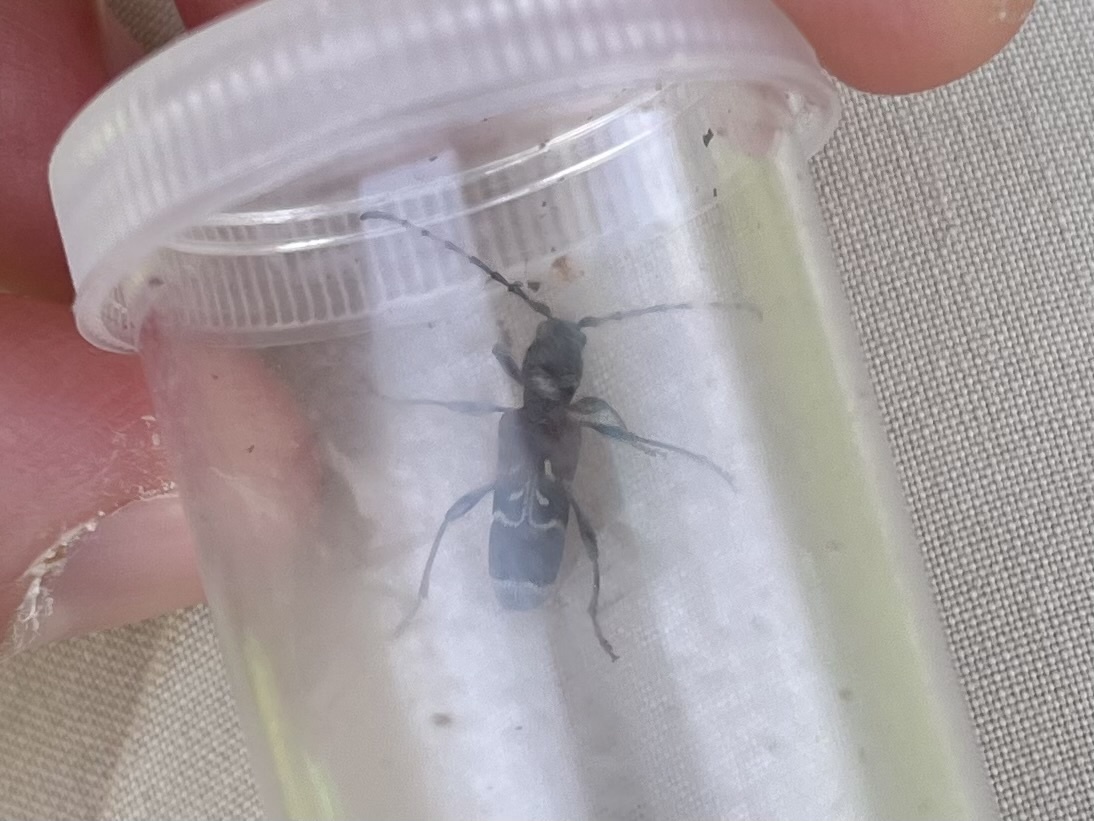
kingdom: Animalia
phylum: Arthropoda
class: Insecta
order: Coleoptera
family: Cerambycidae
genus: Anaglyptus
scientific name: Anaglyptus mysticus
